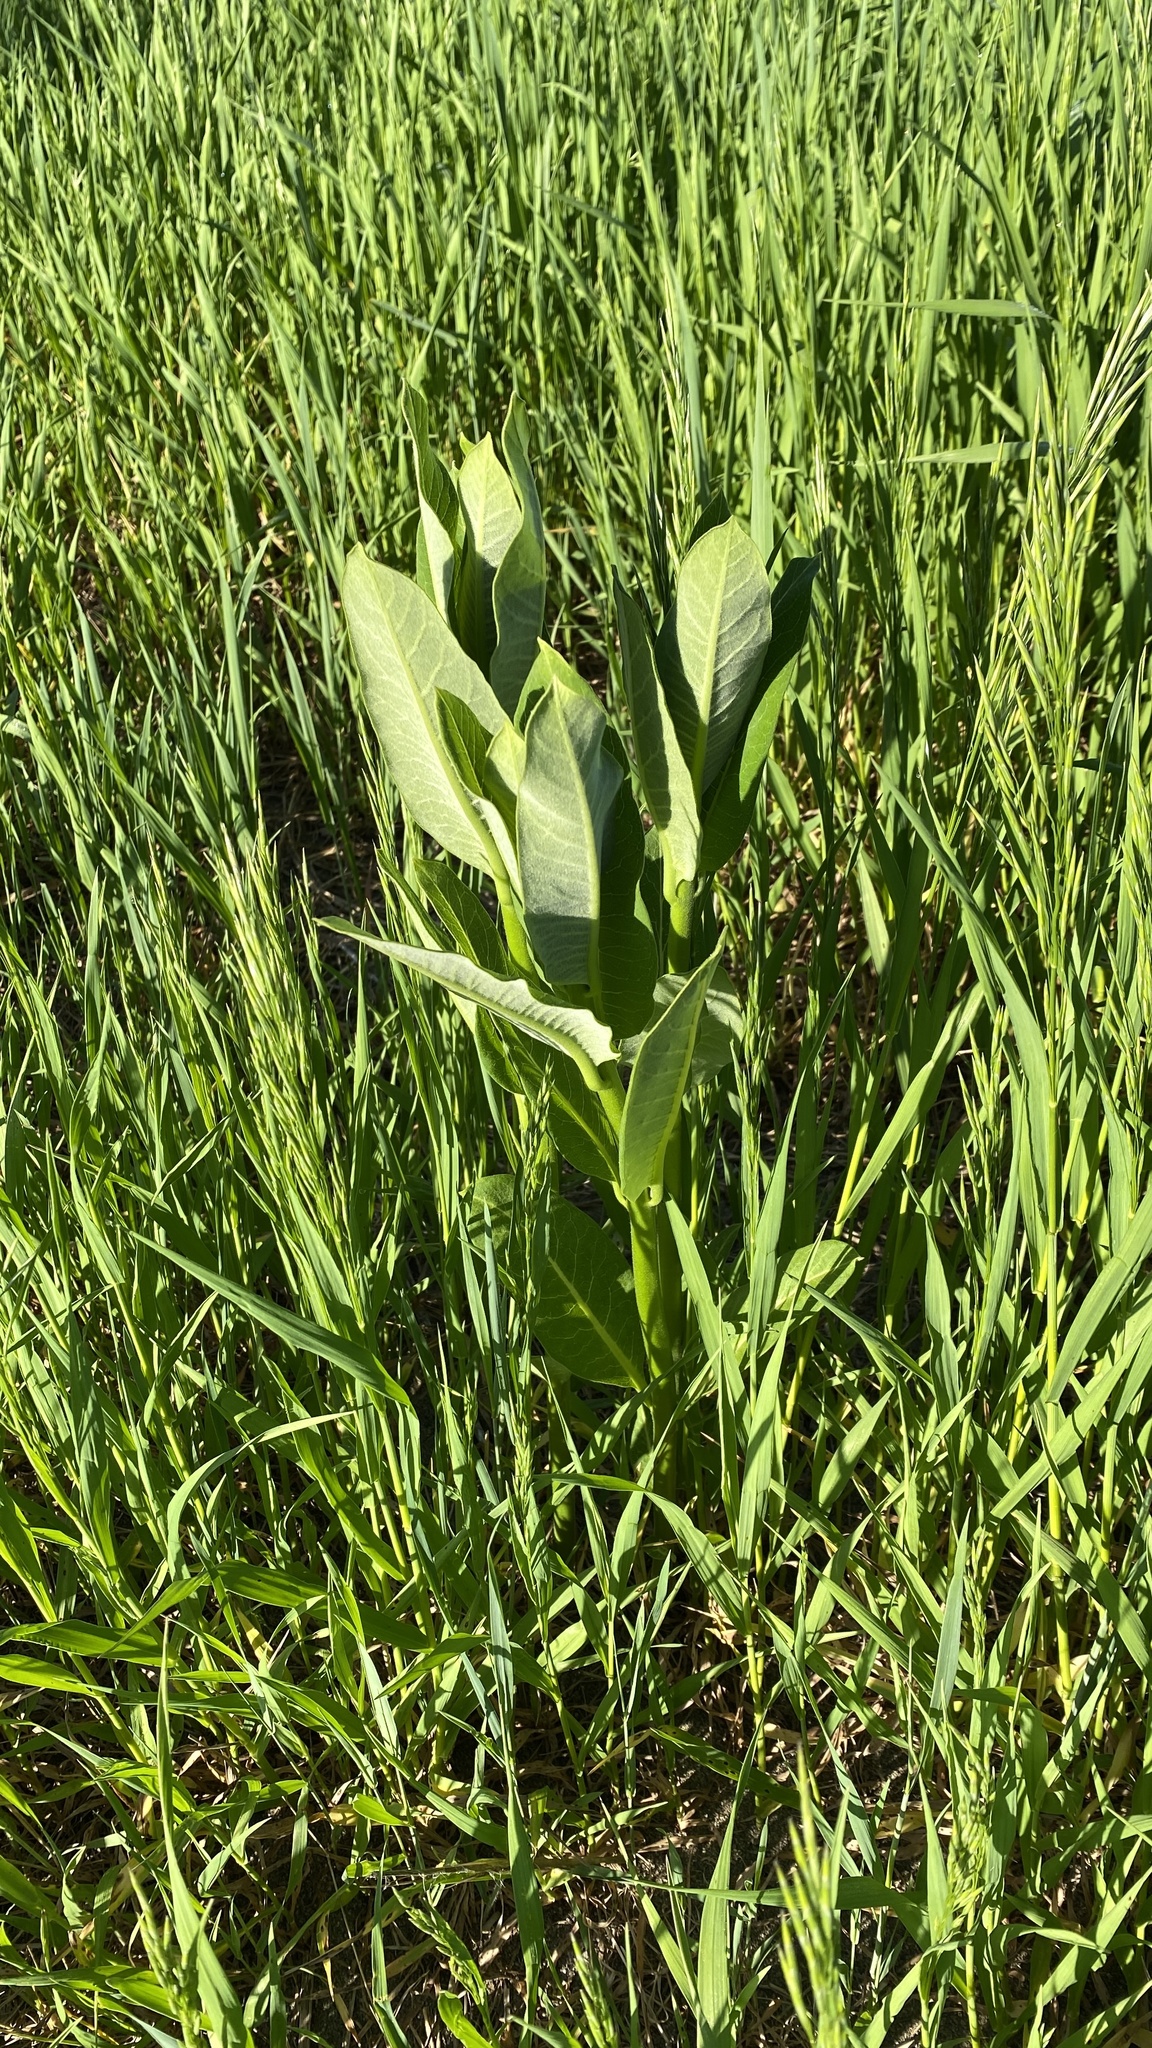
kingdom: Plantae
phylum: Tracheophyta
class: Magnoliopsida
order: Gentianales
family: Apocynaceae
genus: Asclepias
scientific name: Asclepias syriaca
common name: Common milkweed
